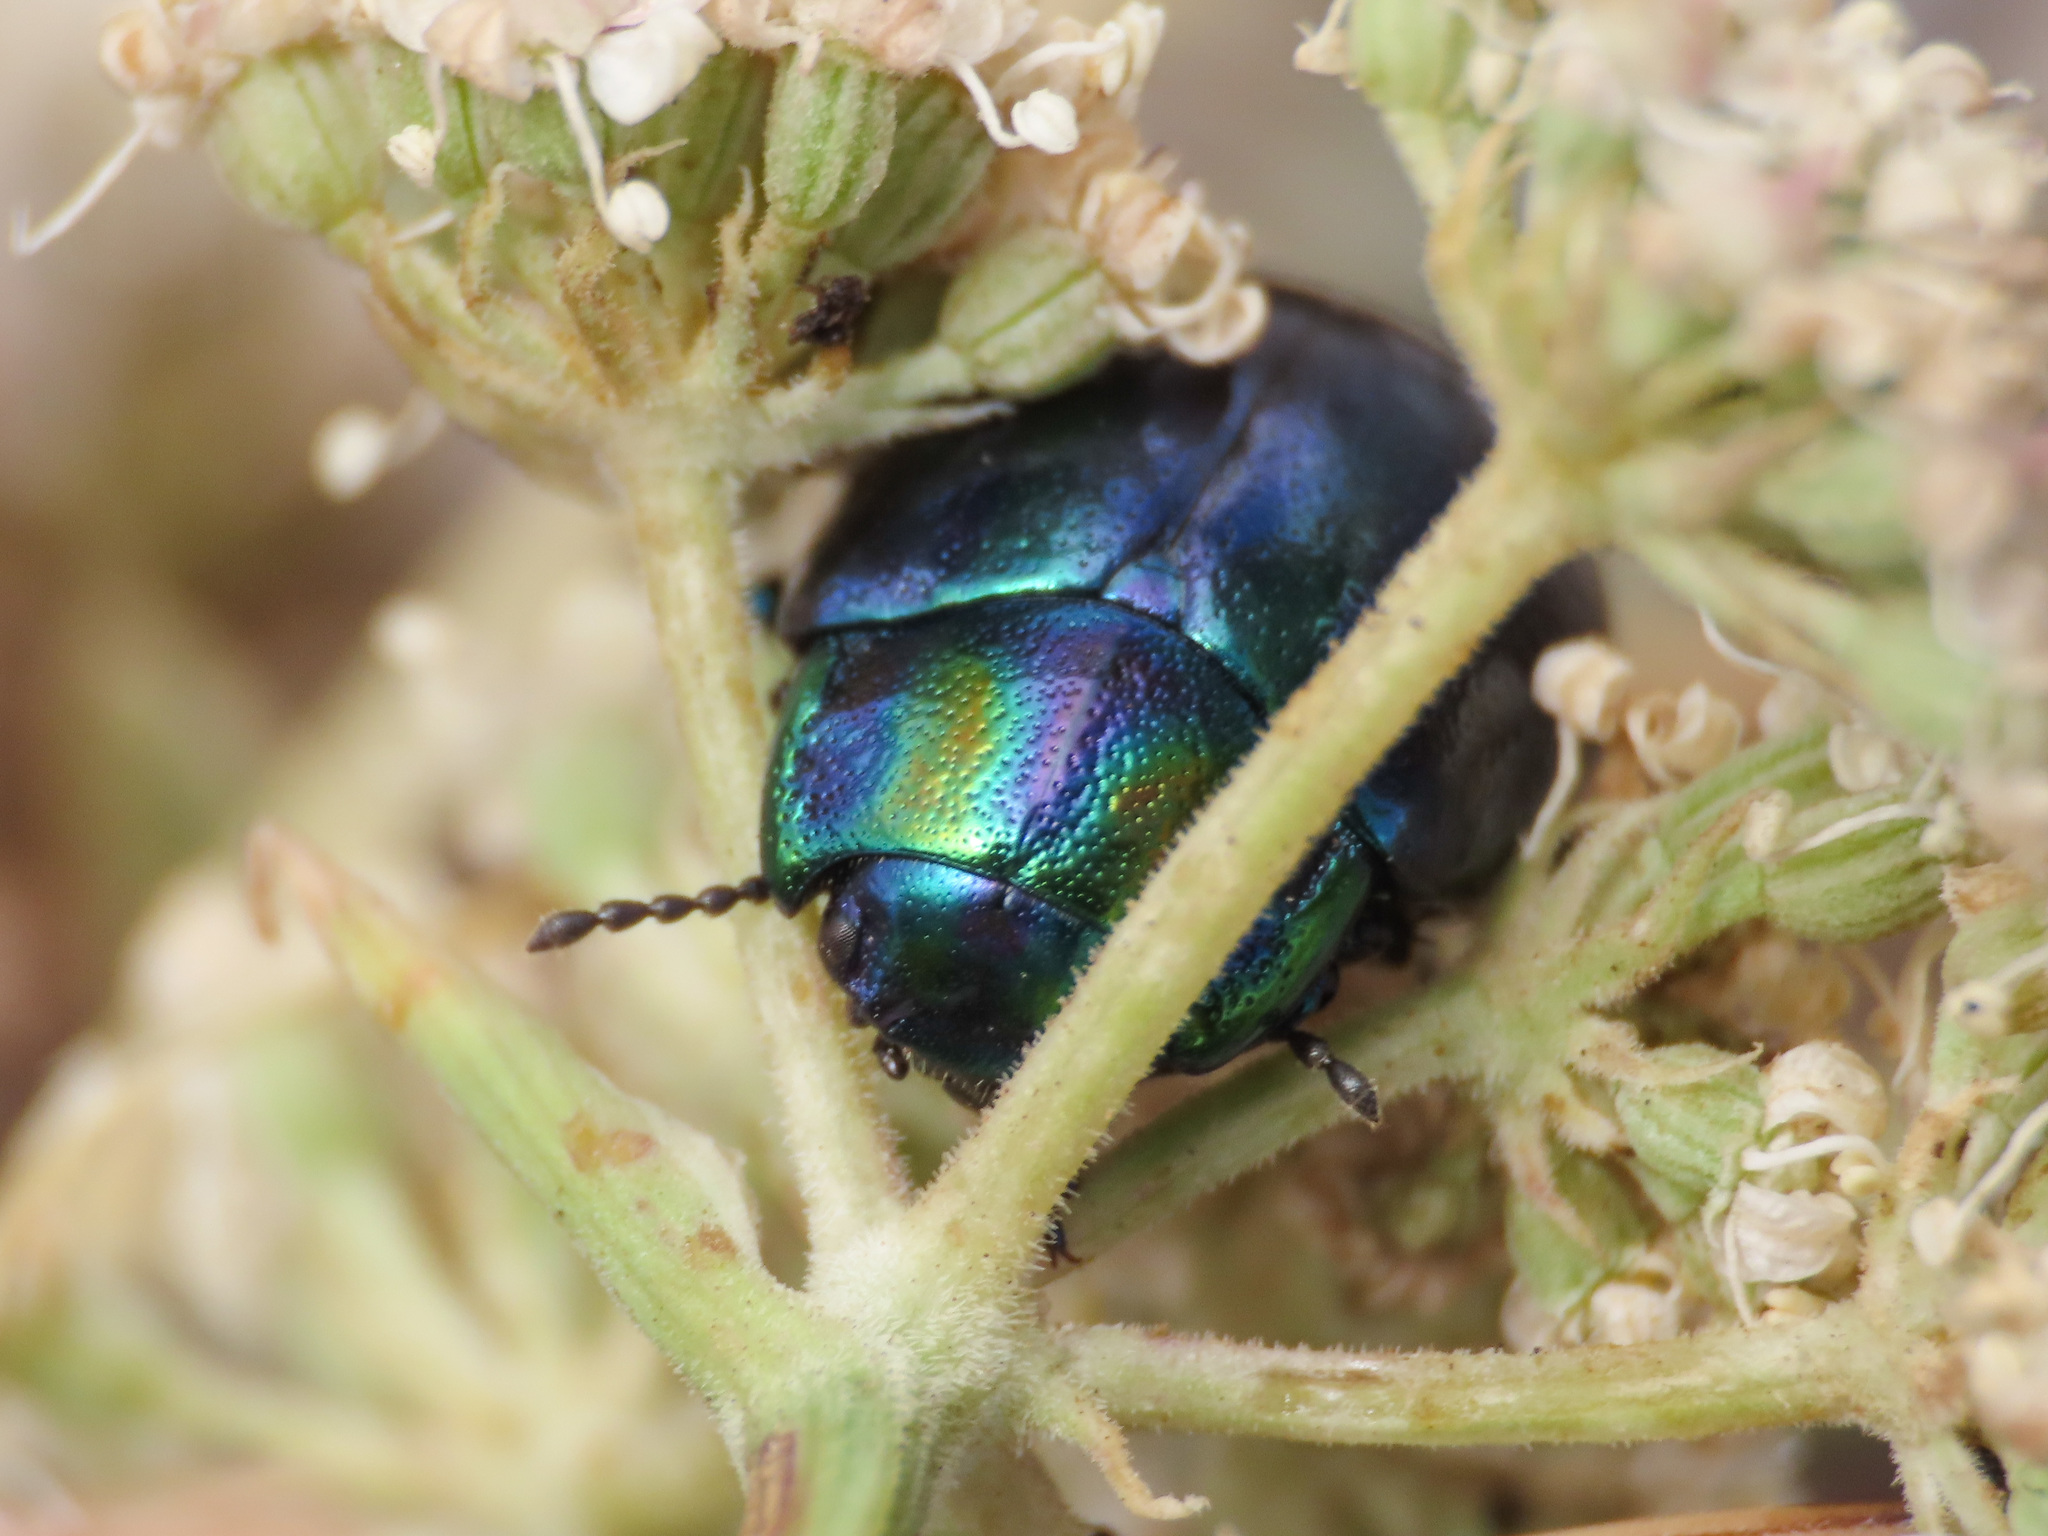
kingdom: Animalia
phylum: Arthropoda
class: Insecta
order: Coleoptera
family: Chrysomelidae
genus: Chrysolina
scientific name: Chrysolina cerealis
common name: Rainbow leaf beetle
